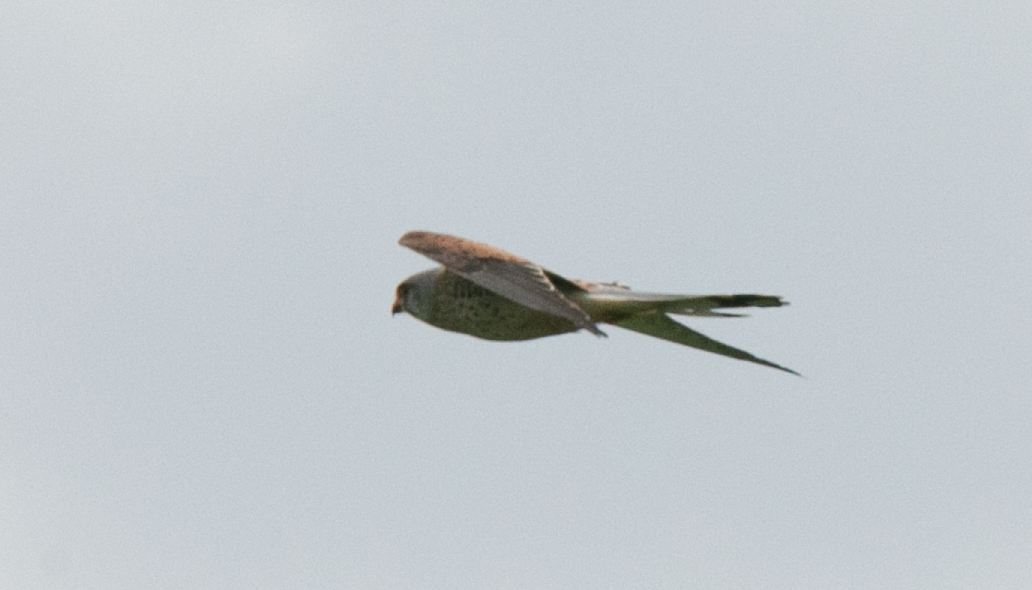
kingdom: Animalia
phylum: Chordata
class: Aves
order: Falconiformes
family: Falconidae
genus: Falco
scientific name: Falco tinnunculus
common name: Common kestrel
